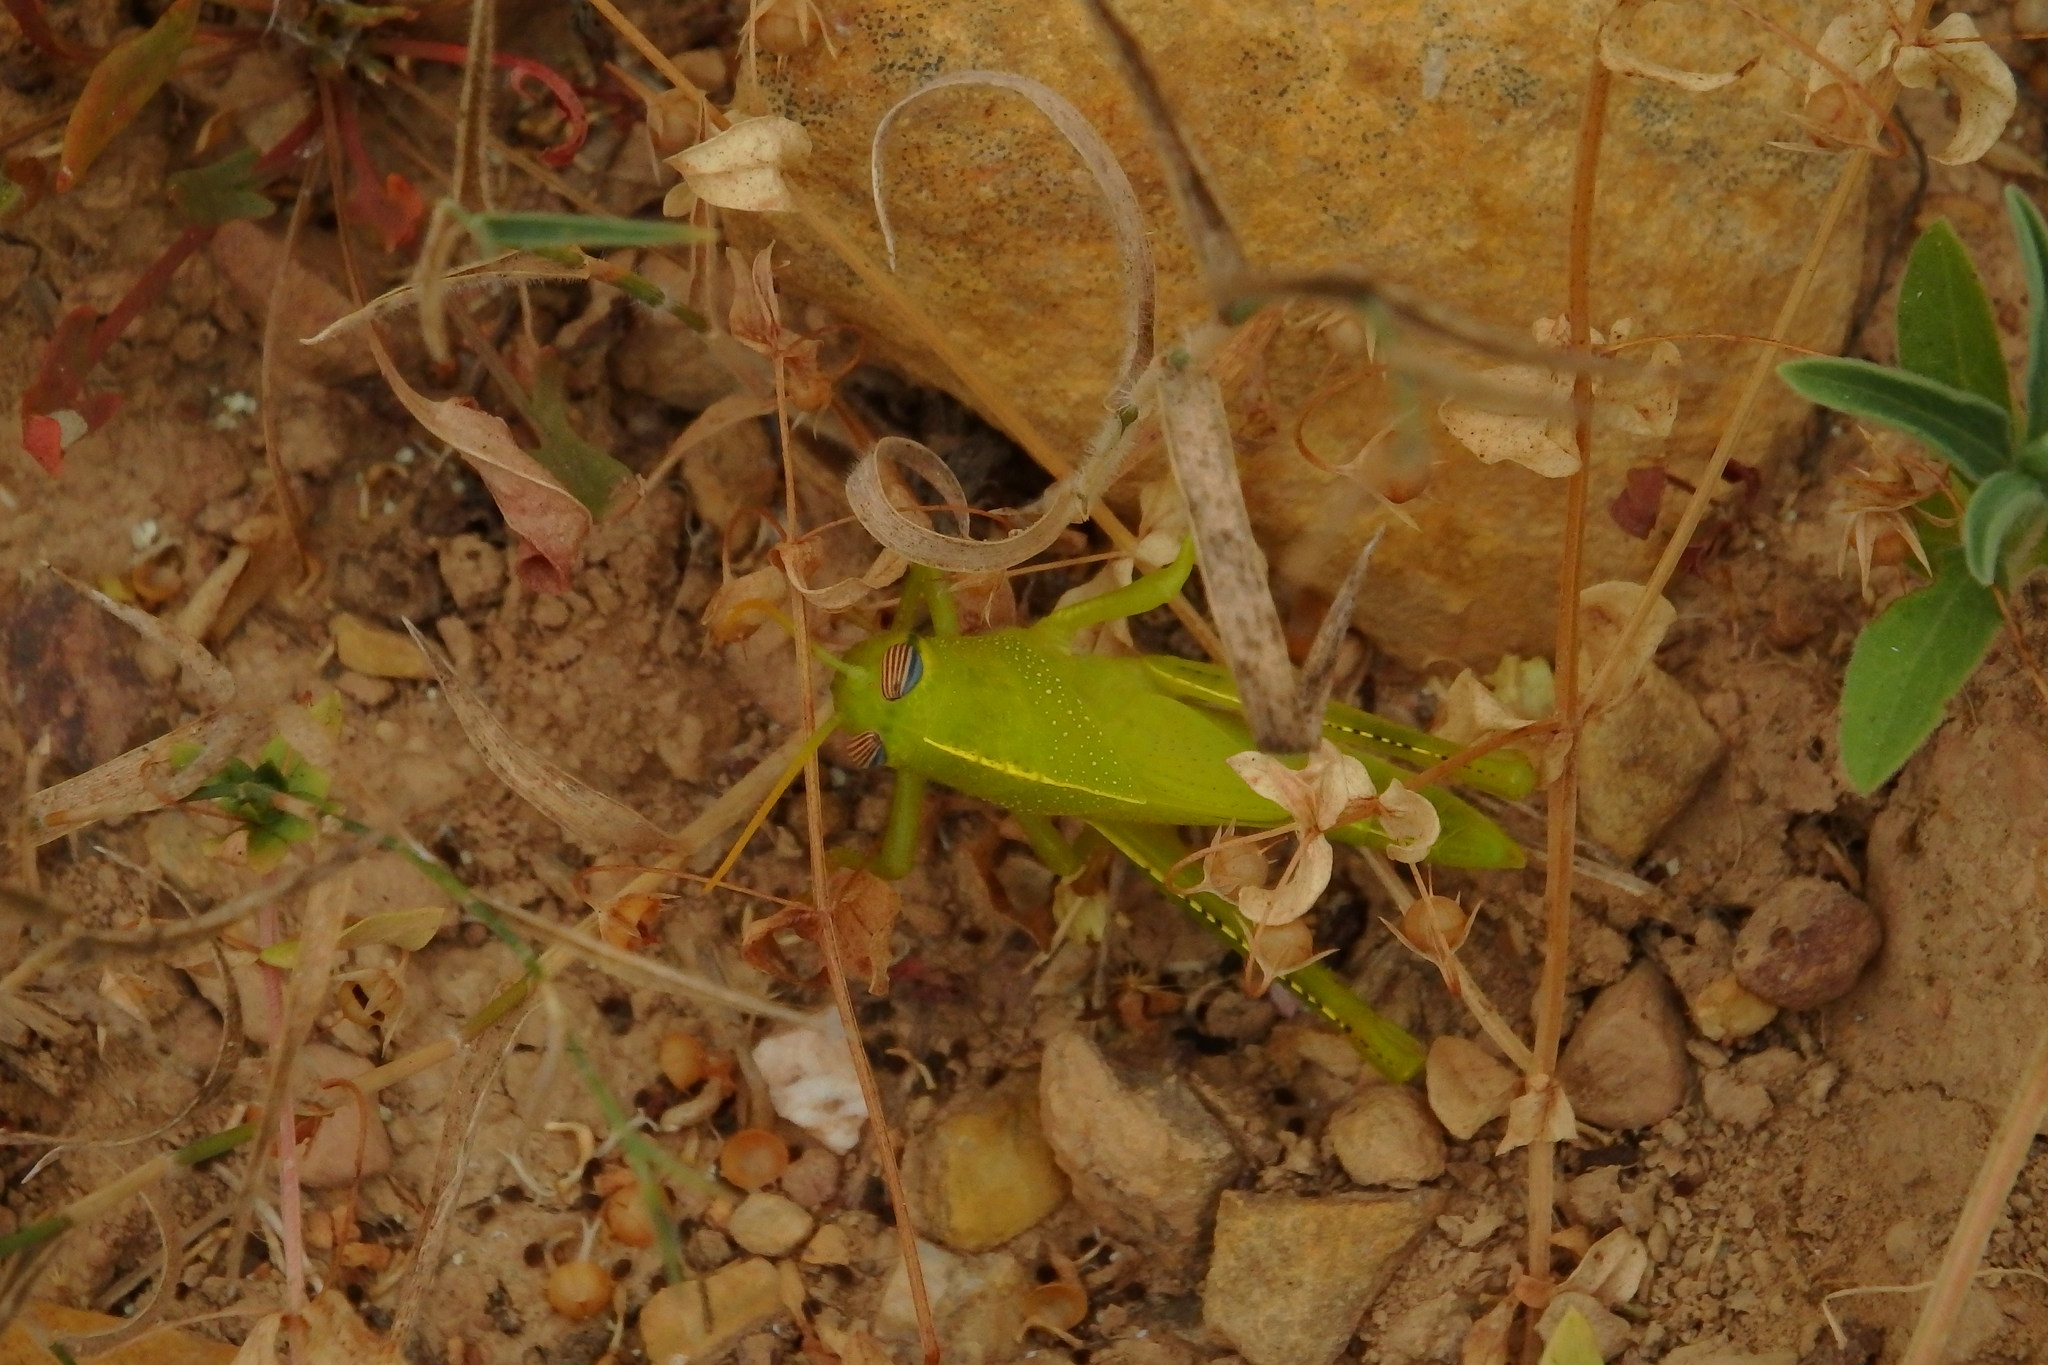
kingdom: Animalia
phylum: Arthropoda
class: Insecta
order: Orthoptera
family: Acrididae
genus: Anacridium
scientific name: Anacridium aegyptium
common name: Egyptian grasshopper
